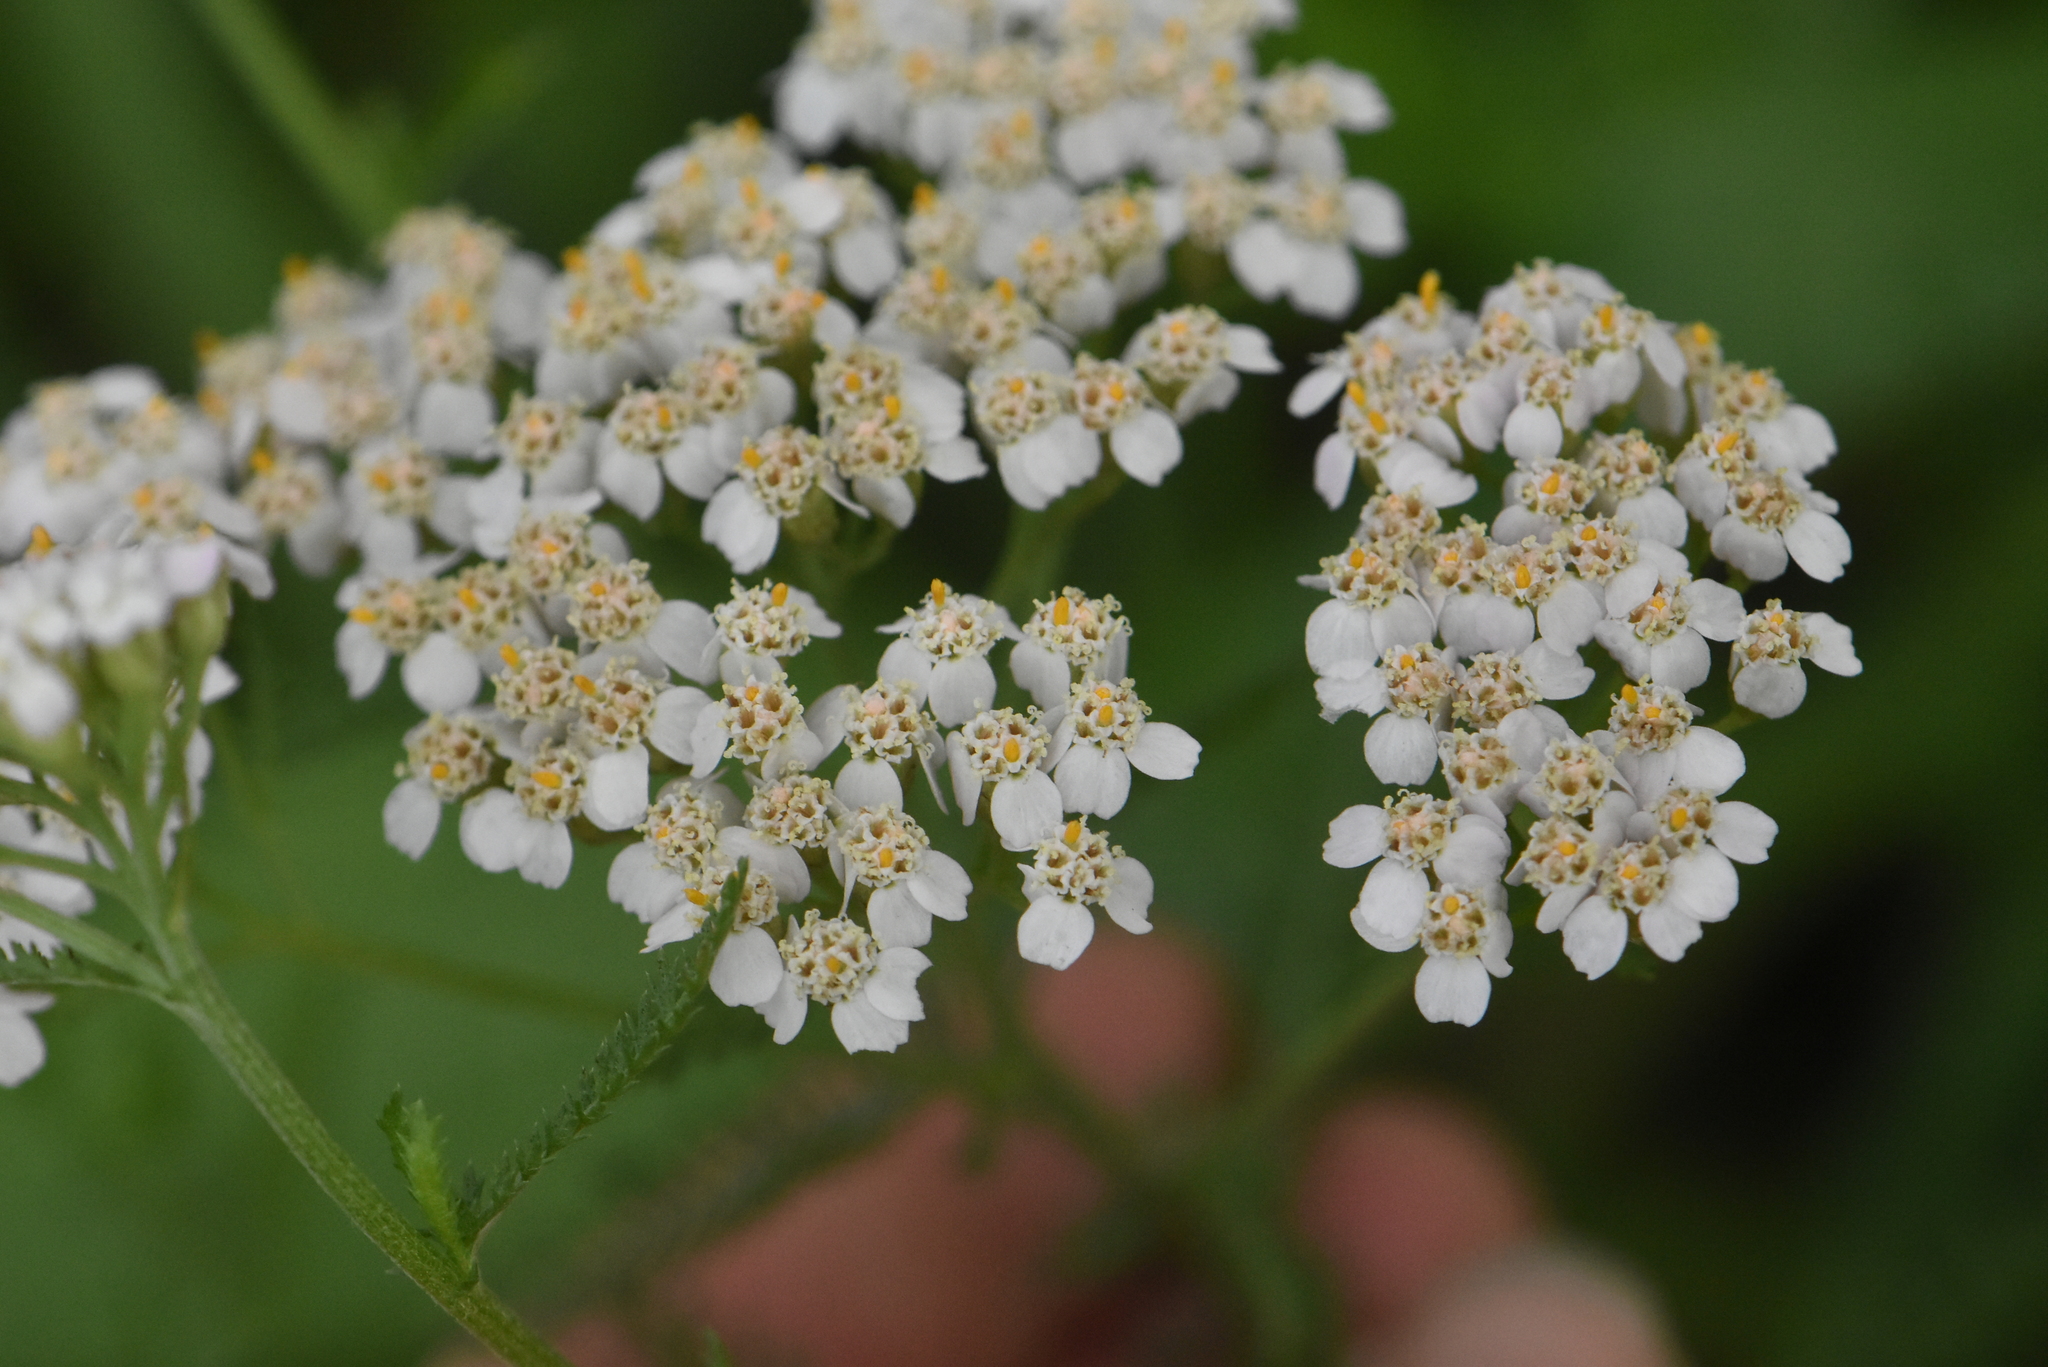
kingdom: Plantae
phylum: Tracheophyta
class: Magnoliopsida
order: Asterales
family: Asteraceae
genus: Achillea
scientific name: Achillea millefolium
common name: Yarrow
